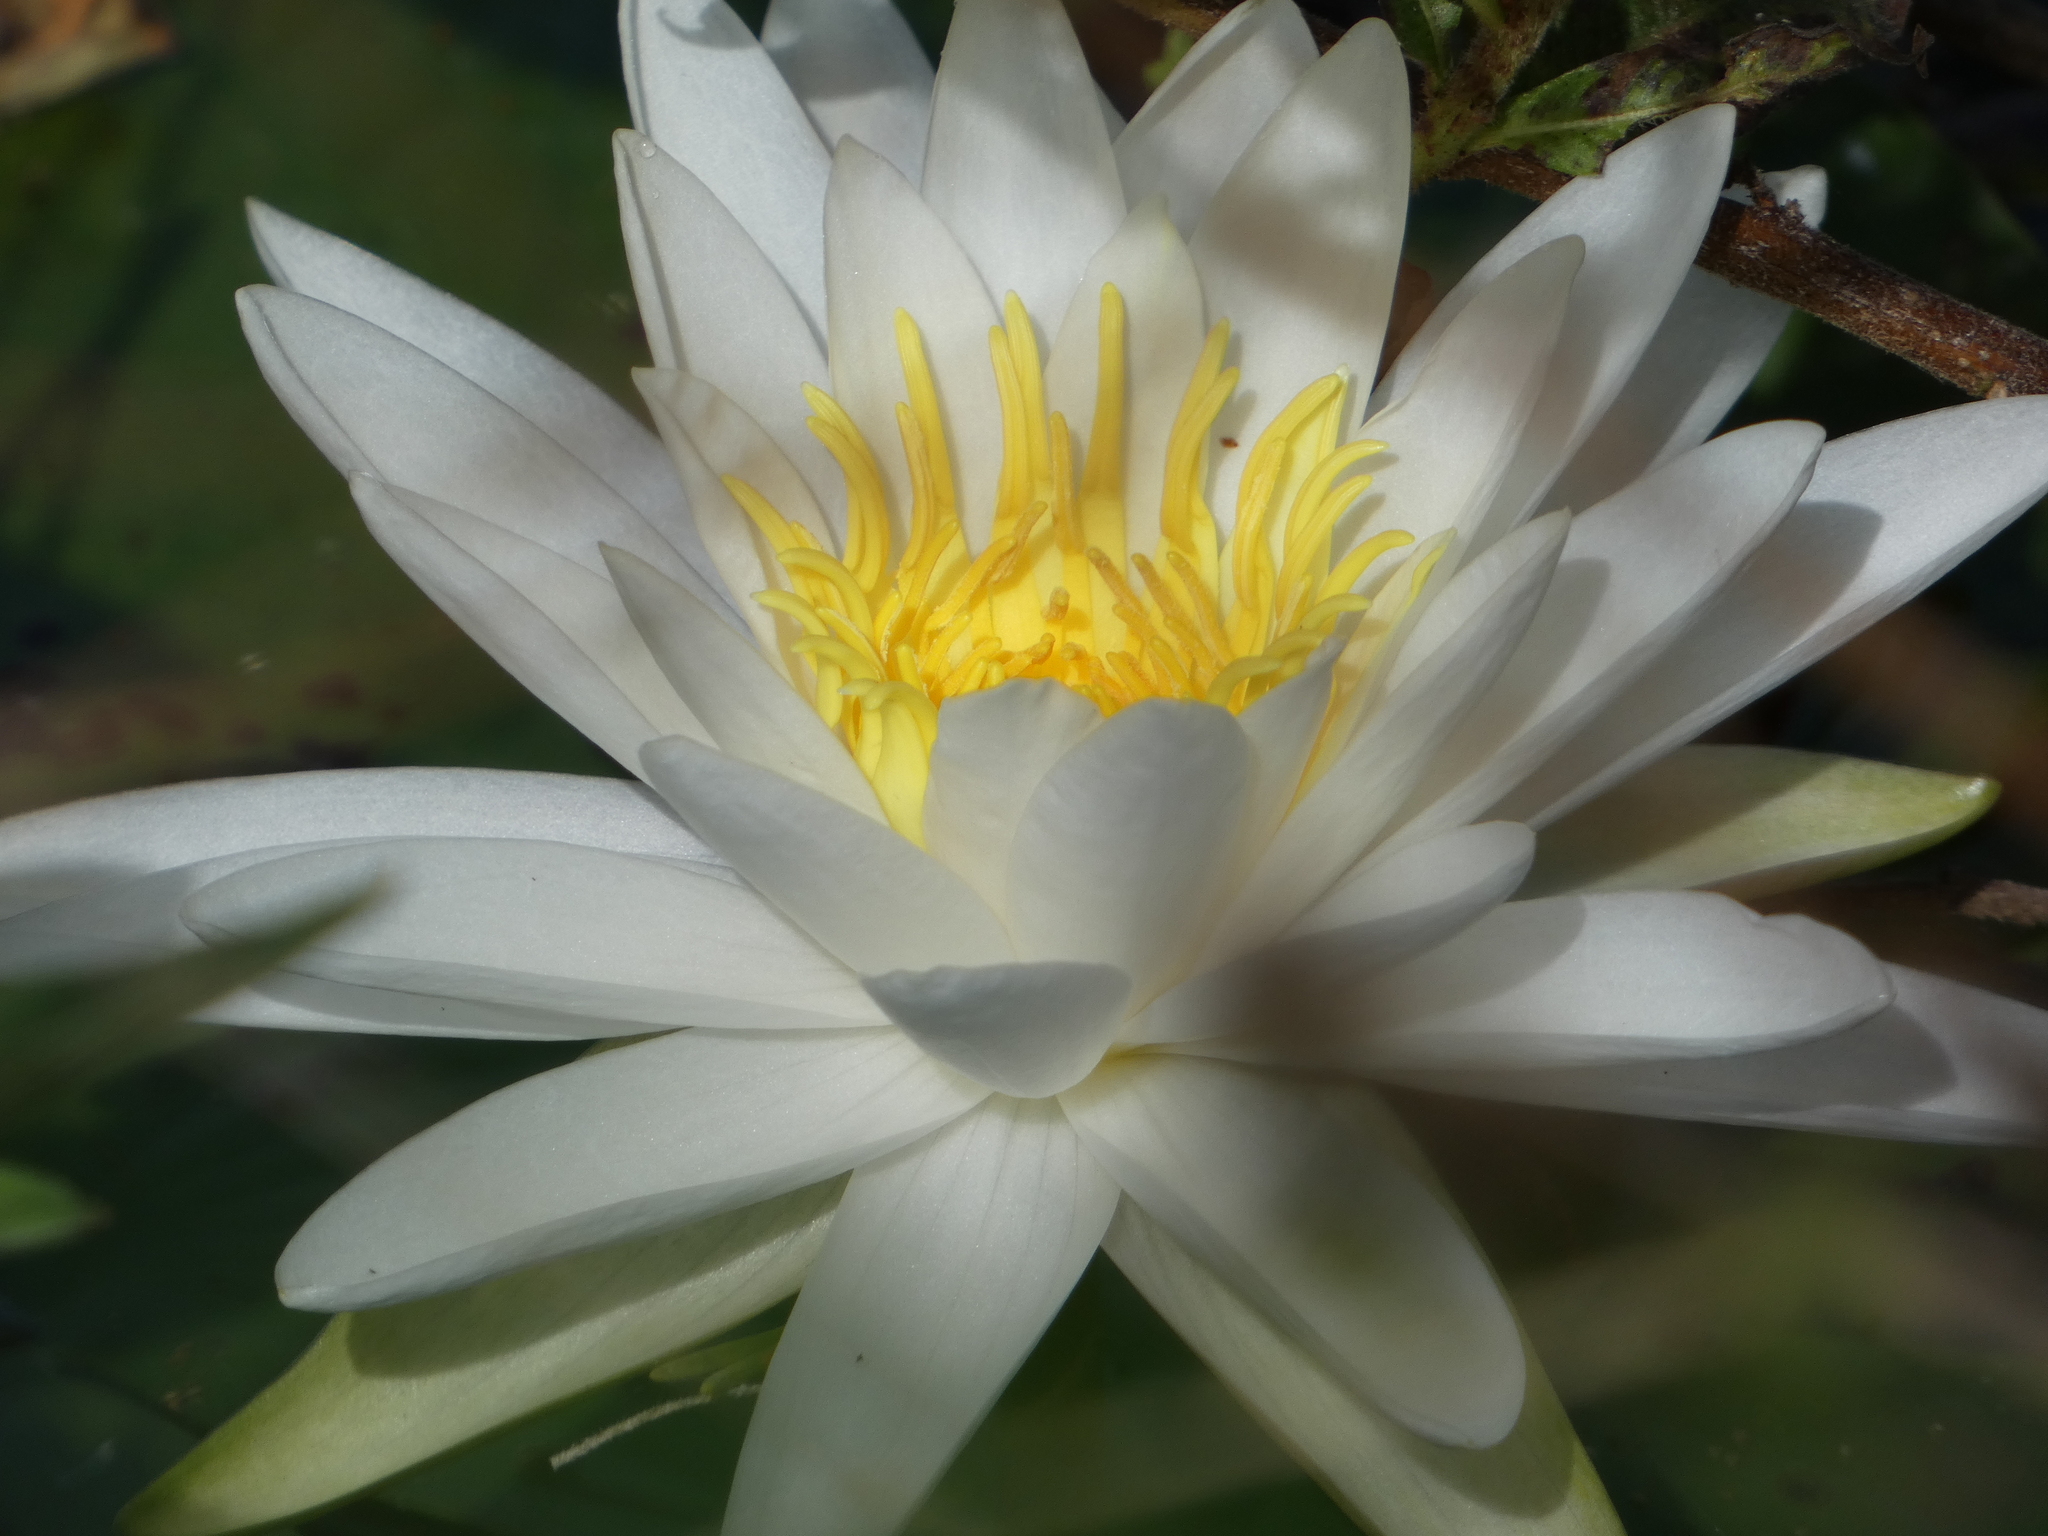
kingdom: Plantae
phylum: Tracheophyta
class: Magnoliopsida
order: Nymphaeales
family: Nymphaeaceae
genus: Nymphaea
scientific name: Nymphaea odorata
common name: Fragrant water-lily
